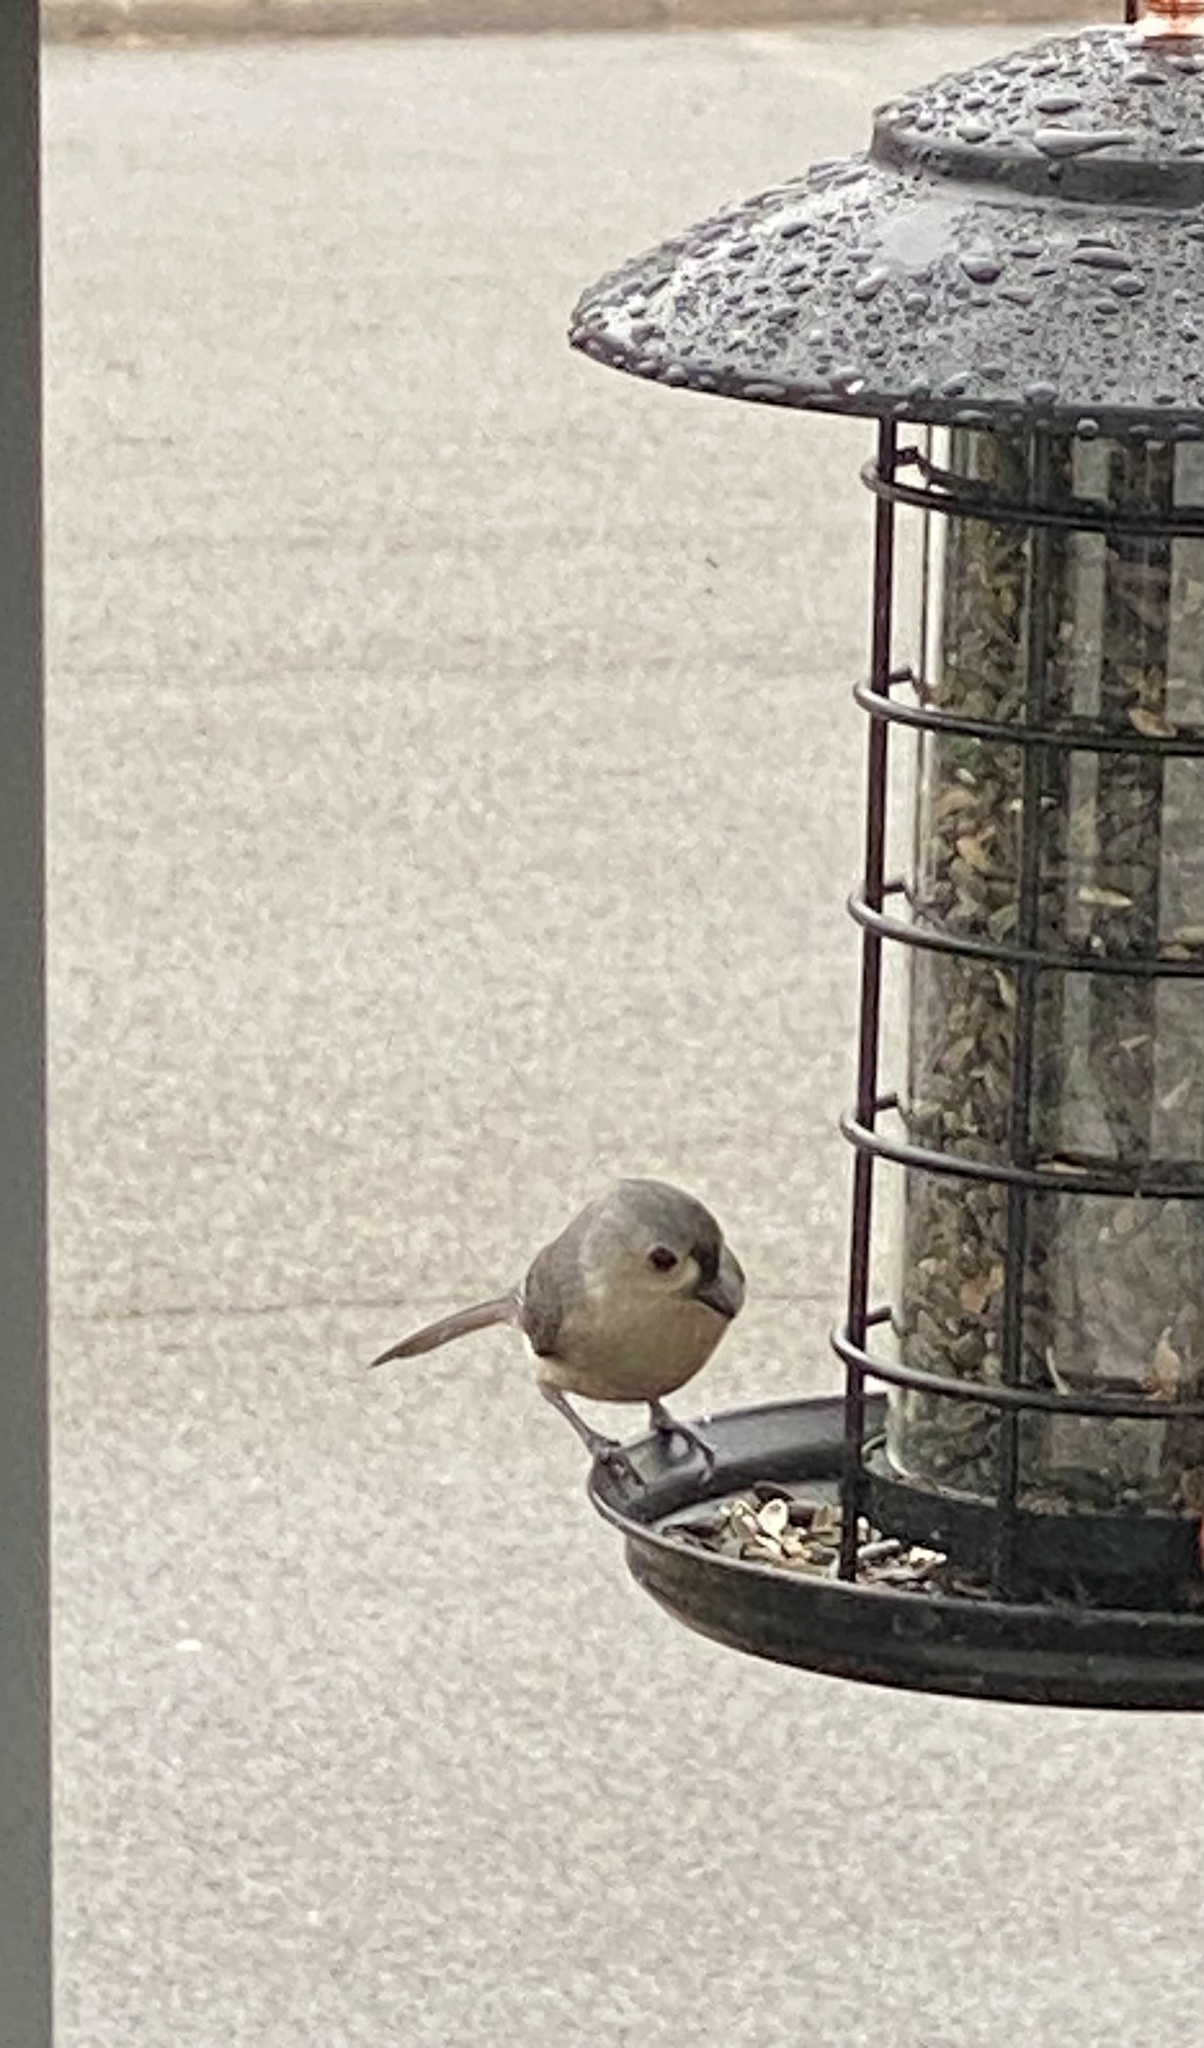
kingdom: Animalia
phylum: Chordata
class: Aves
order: Passeriformes
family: Paridae
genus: Baeolophus
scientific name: Baeolophus bicolor
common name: Tufted titmouse
